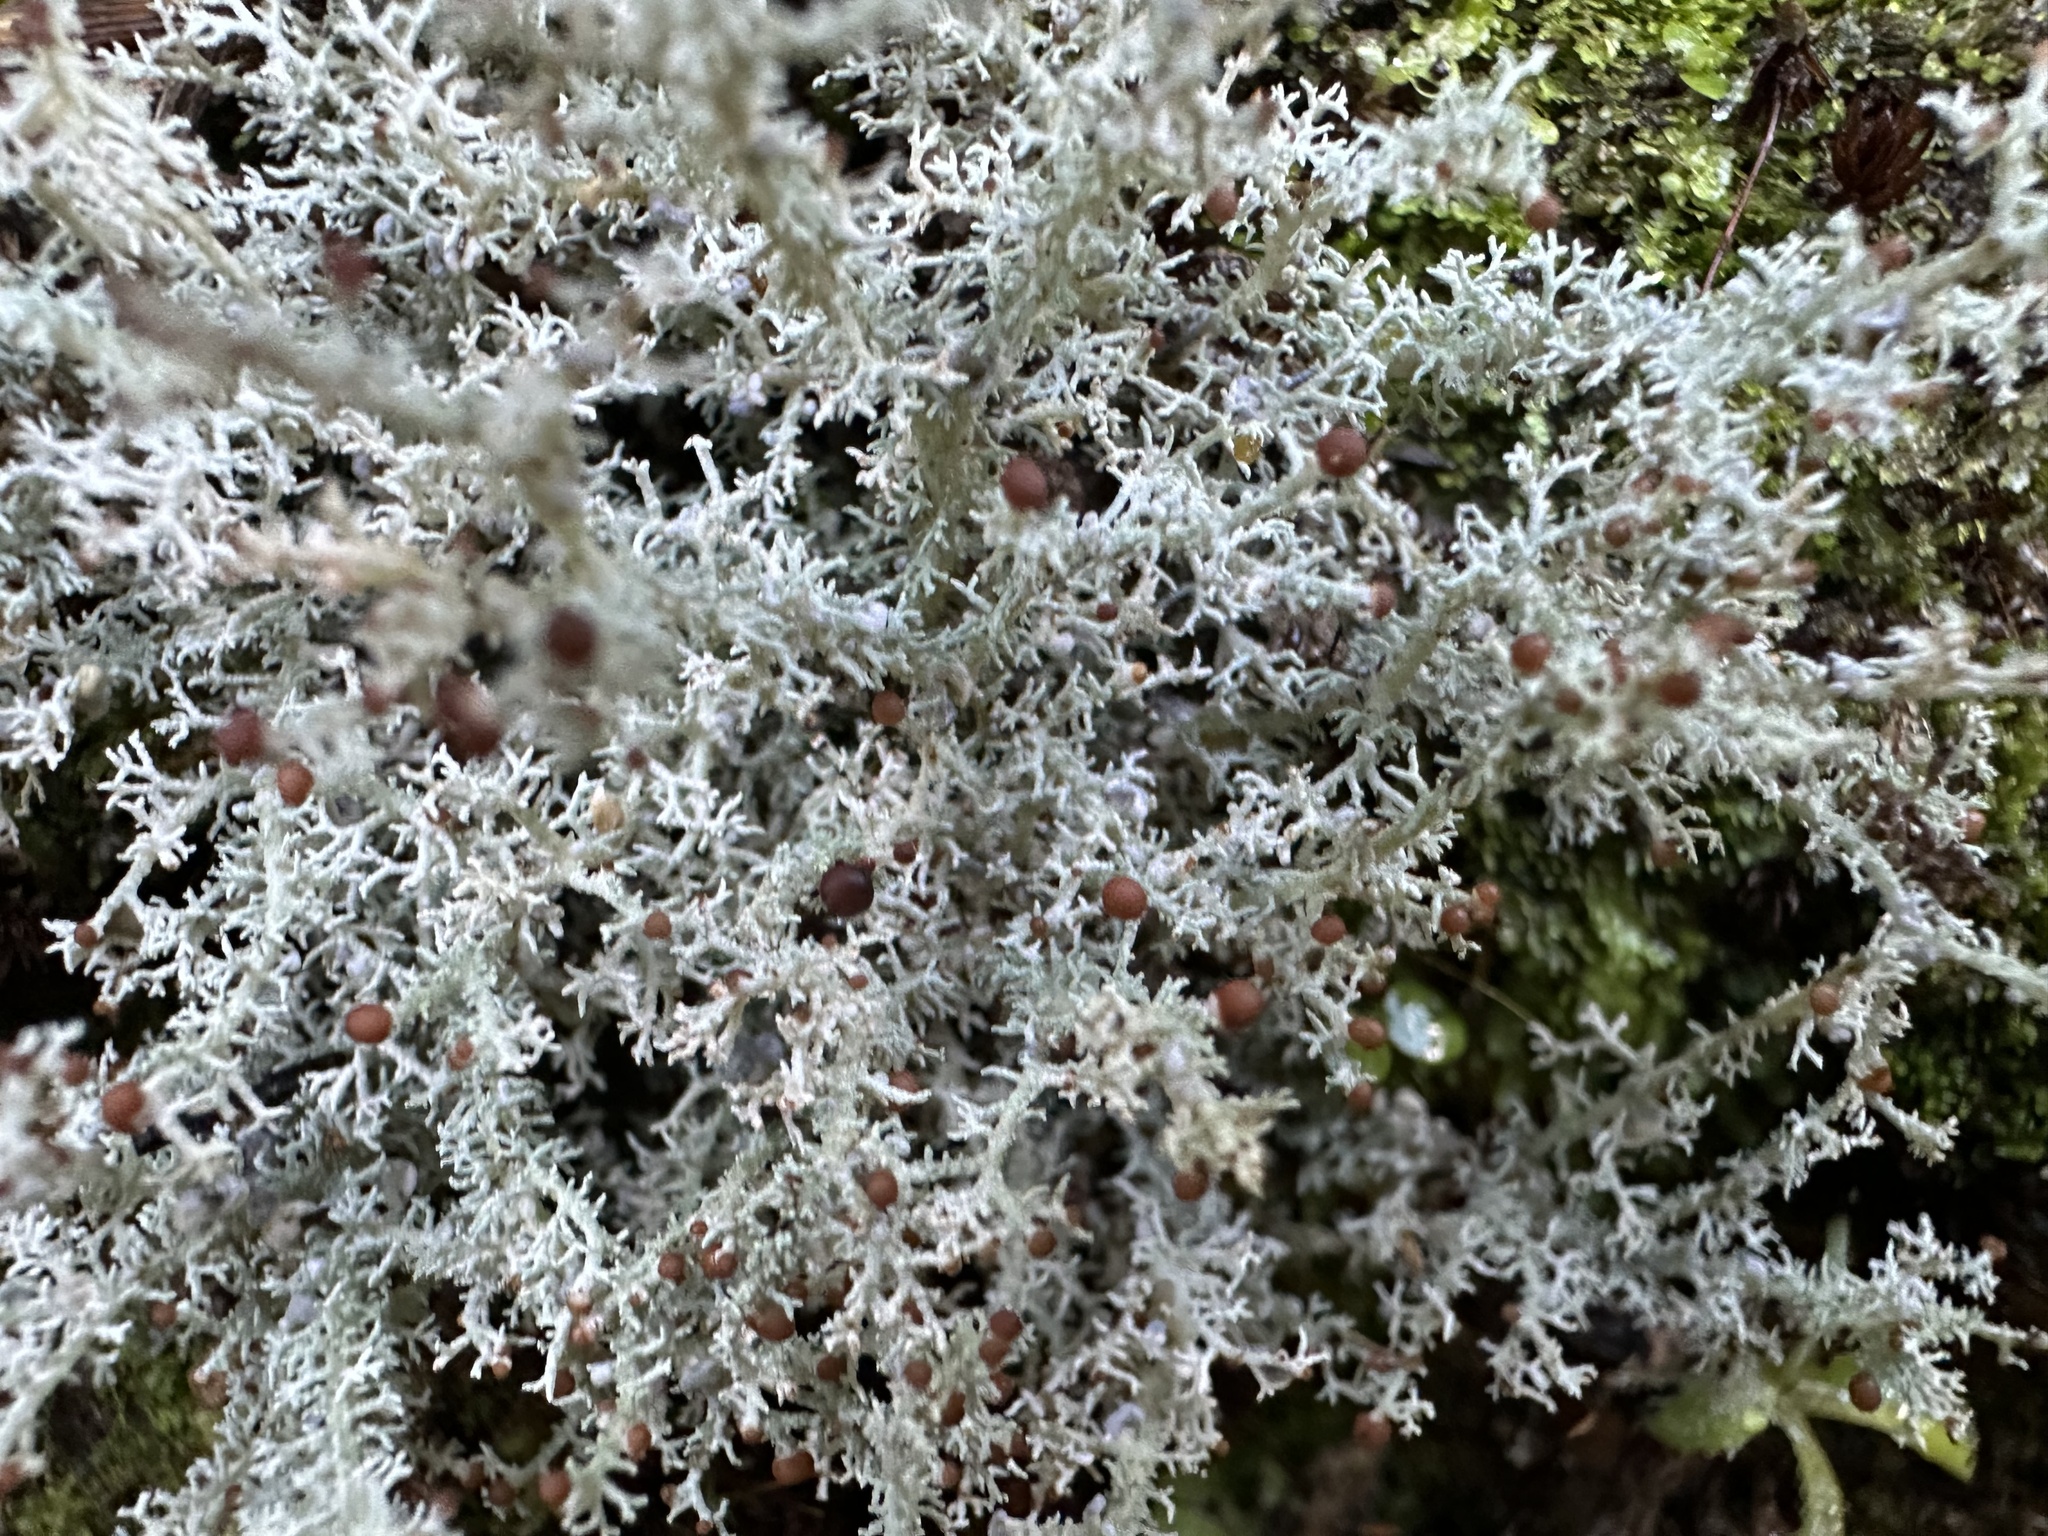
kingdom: Fungi
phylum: Ascomycota
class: Lecanoromycetes
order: Lecanorales
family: Stereocaulaceae
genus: Stereocaulon
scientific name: Stereocaulon ramulosum
